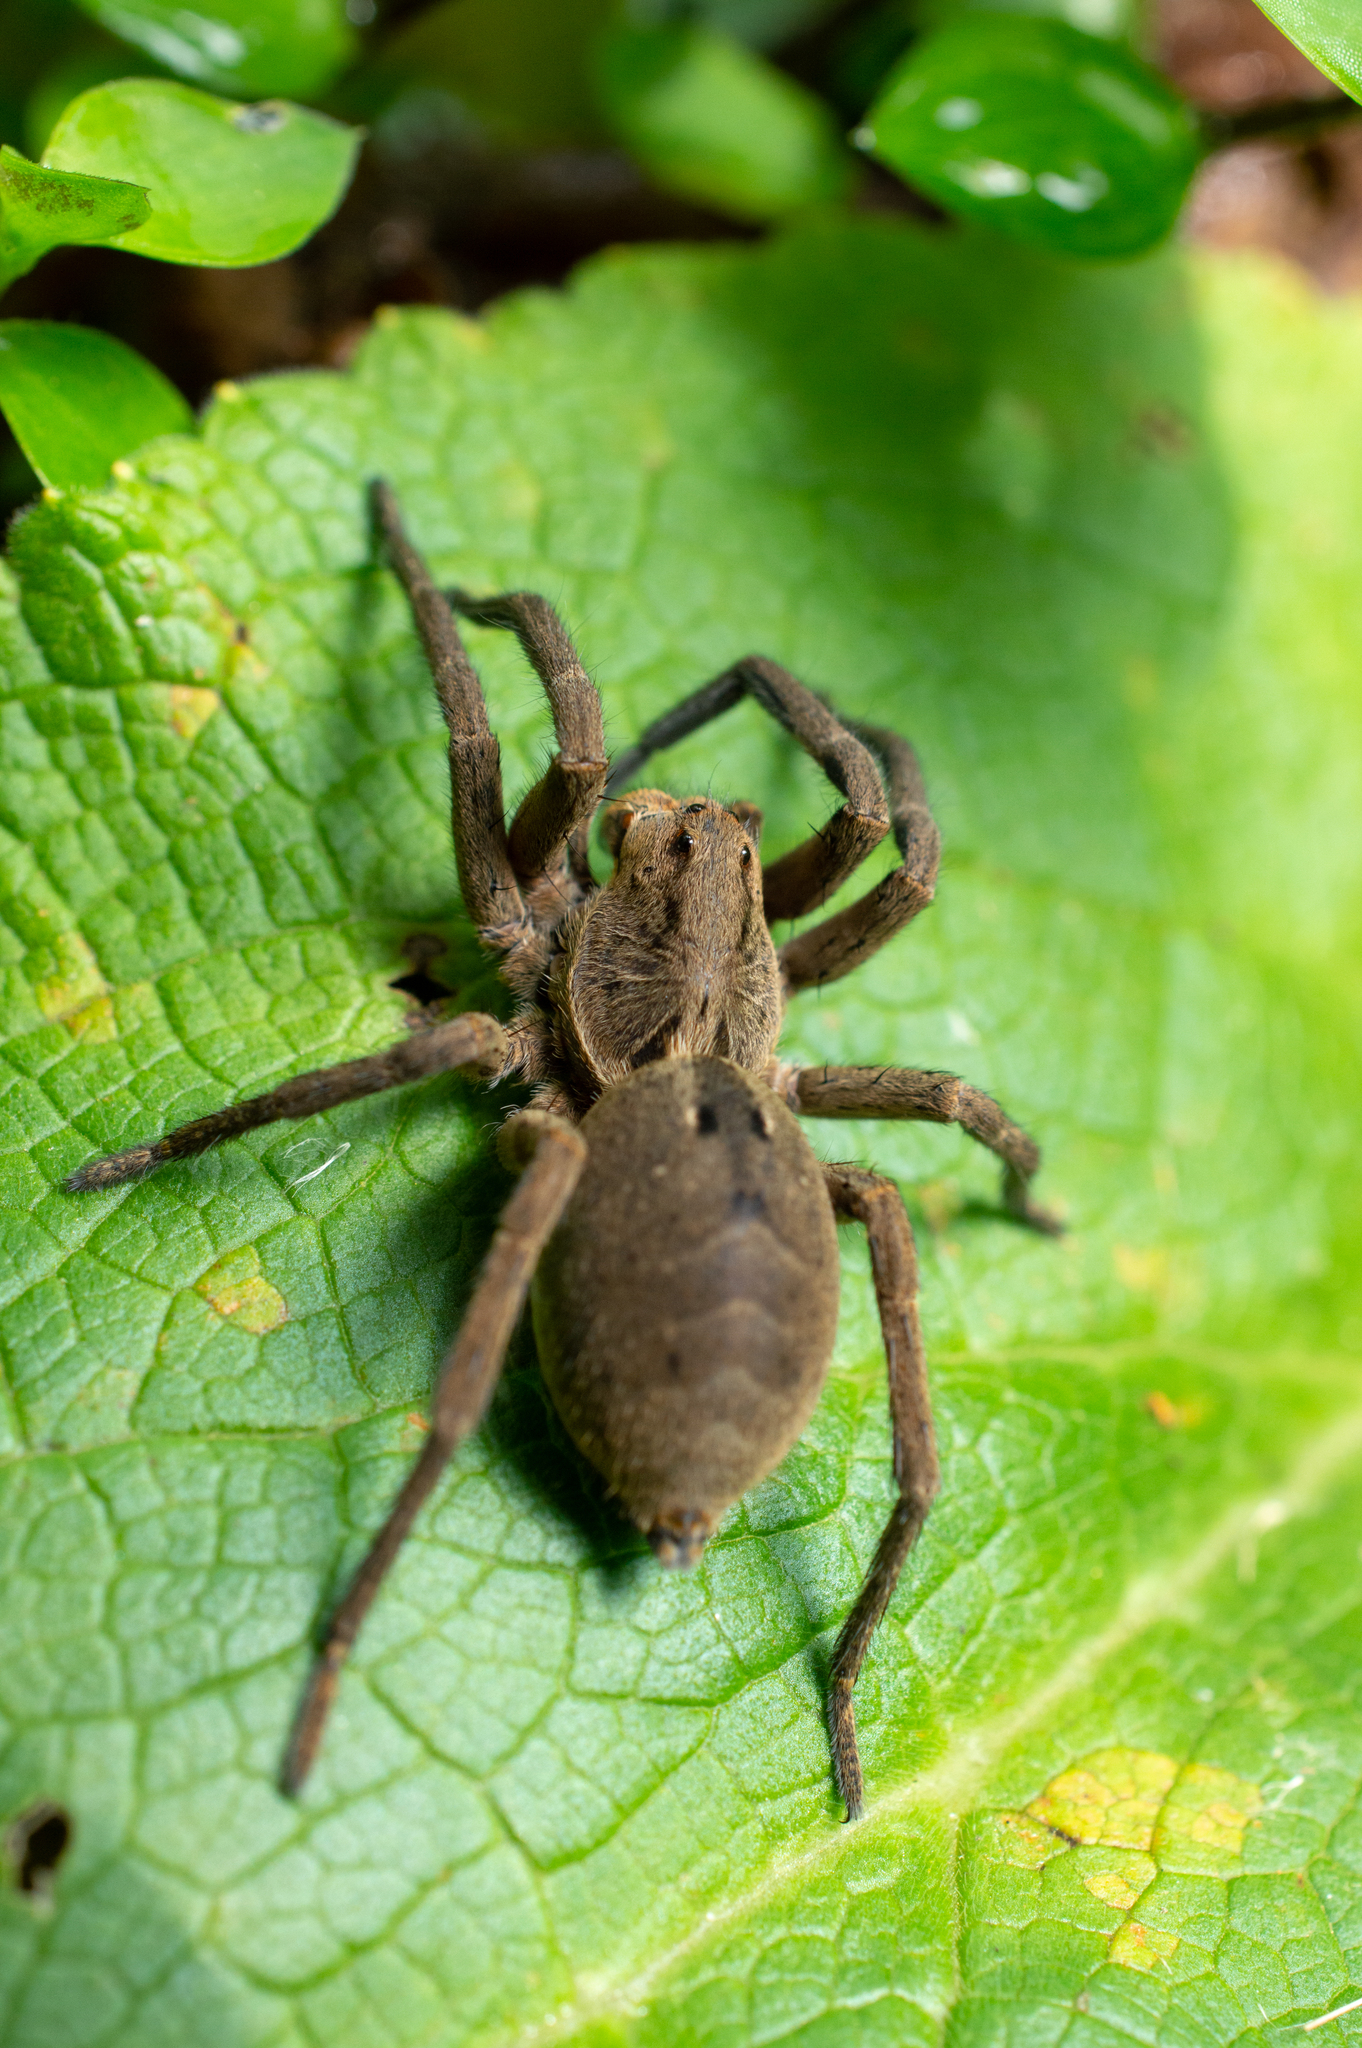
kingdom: Animalia
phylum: Arthropoda
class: Arachnida
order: Araneae
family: Lycosidae
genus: Lycosa
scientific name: Lycosa erythrognatha
